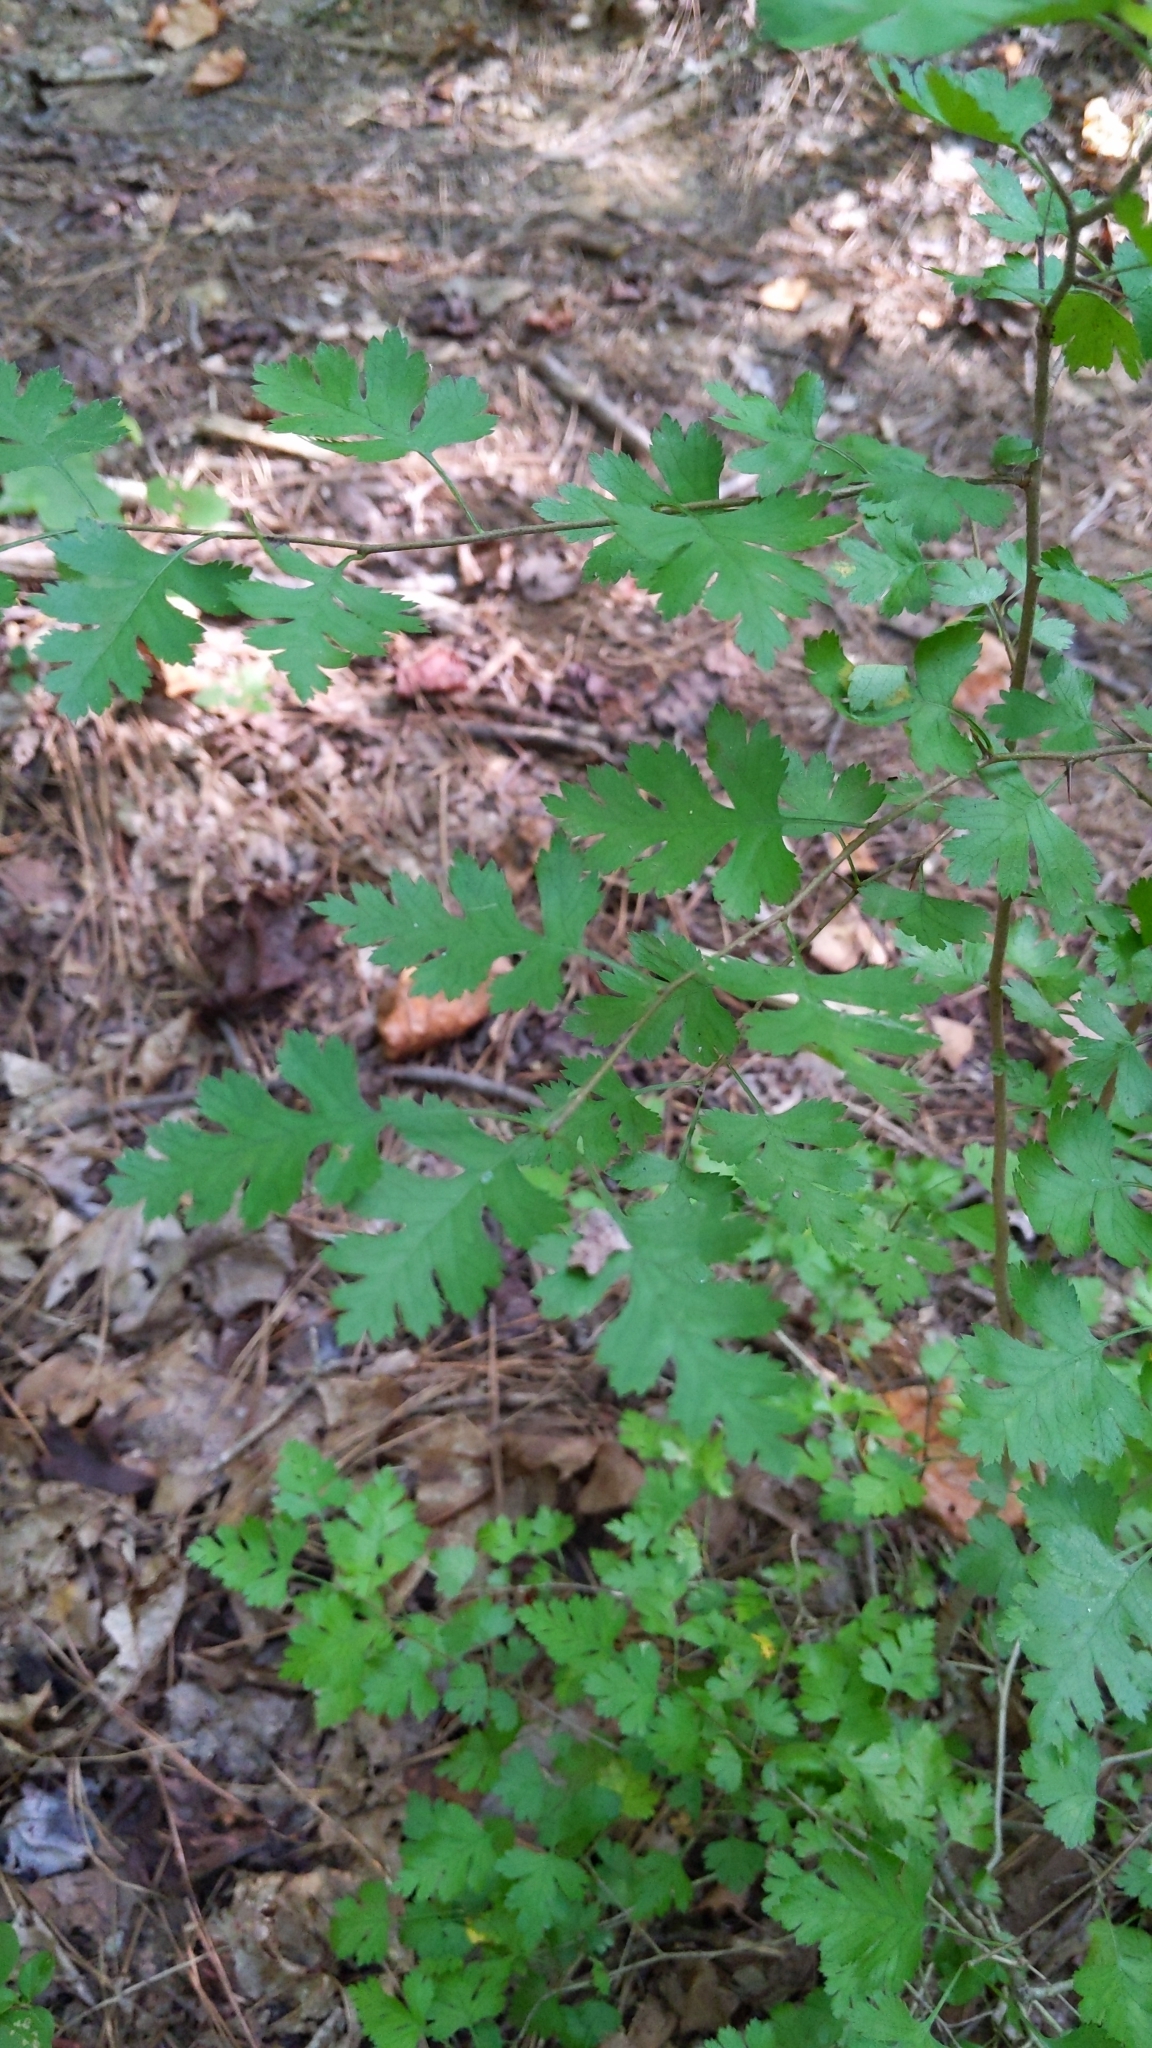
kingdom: Plantae
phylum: Tracheophyta
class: Magnoliopsida
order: Rosales
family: Rosaceae
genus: Crataegus
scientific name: Crataegus marshallii
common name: Parsley-hawthorn
